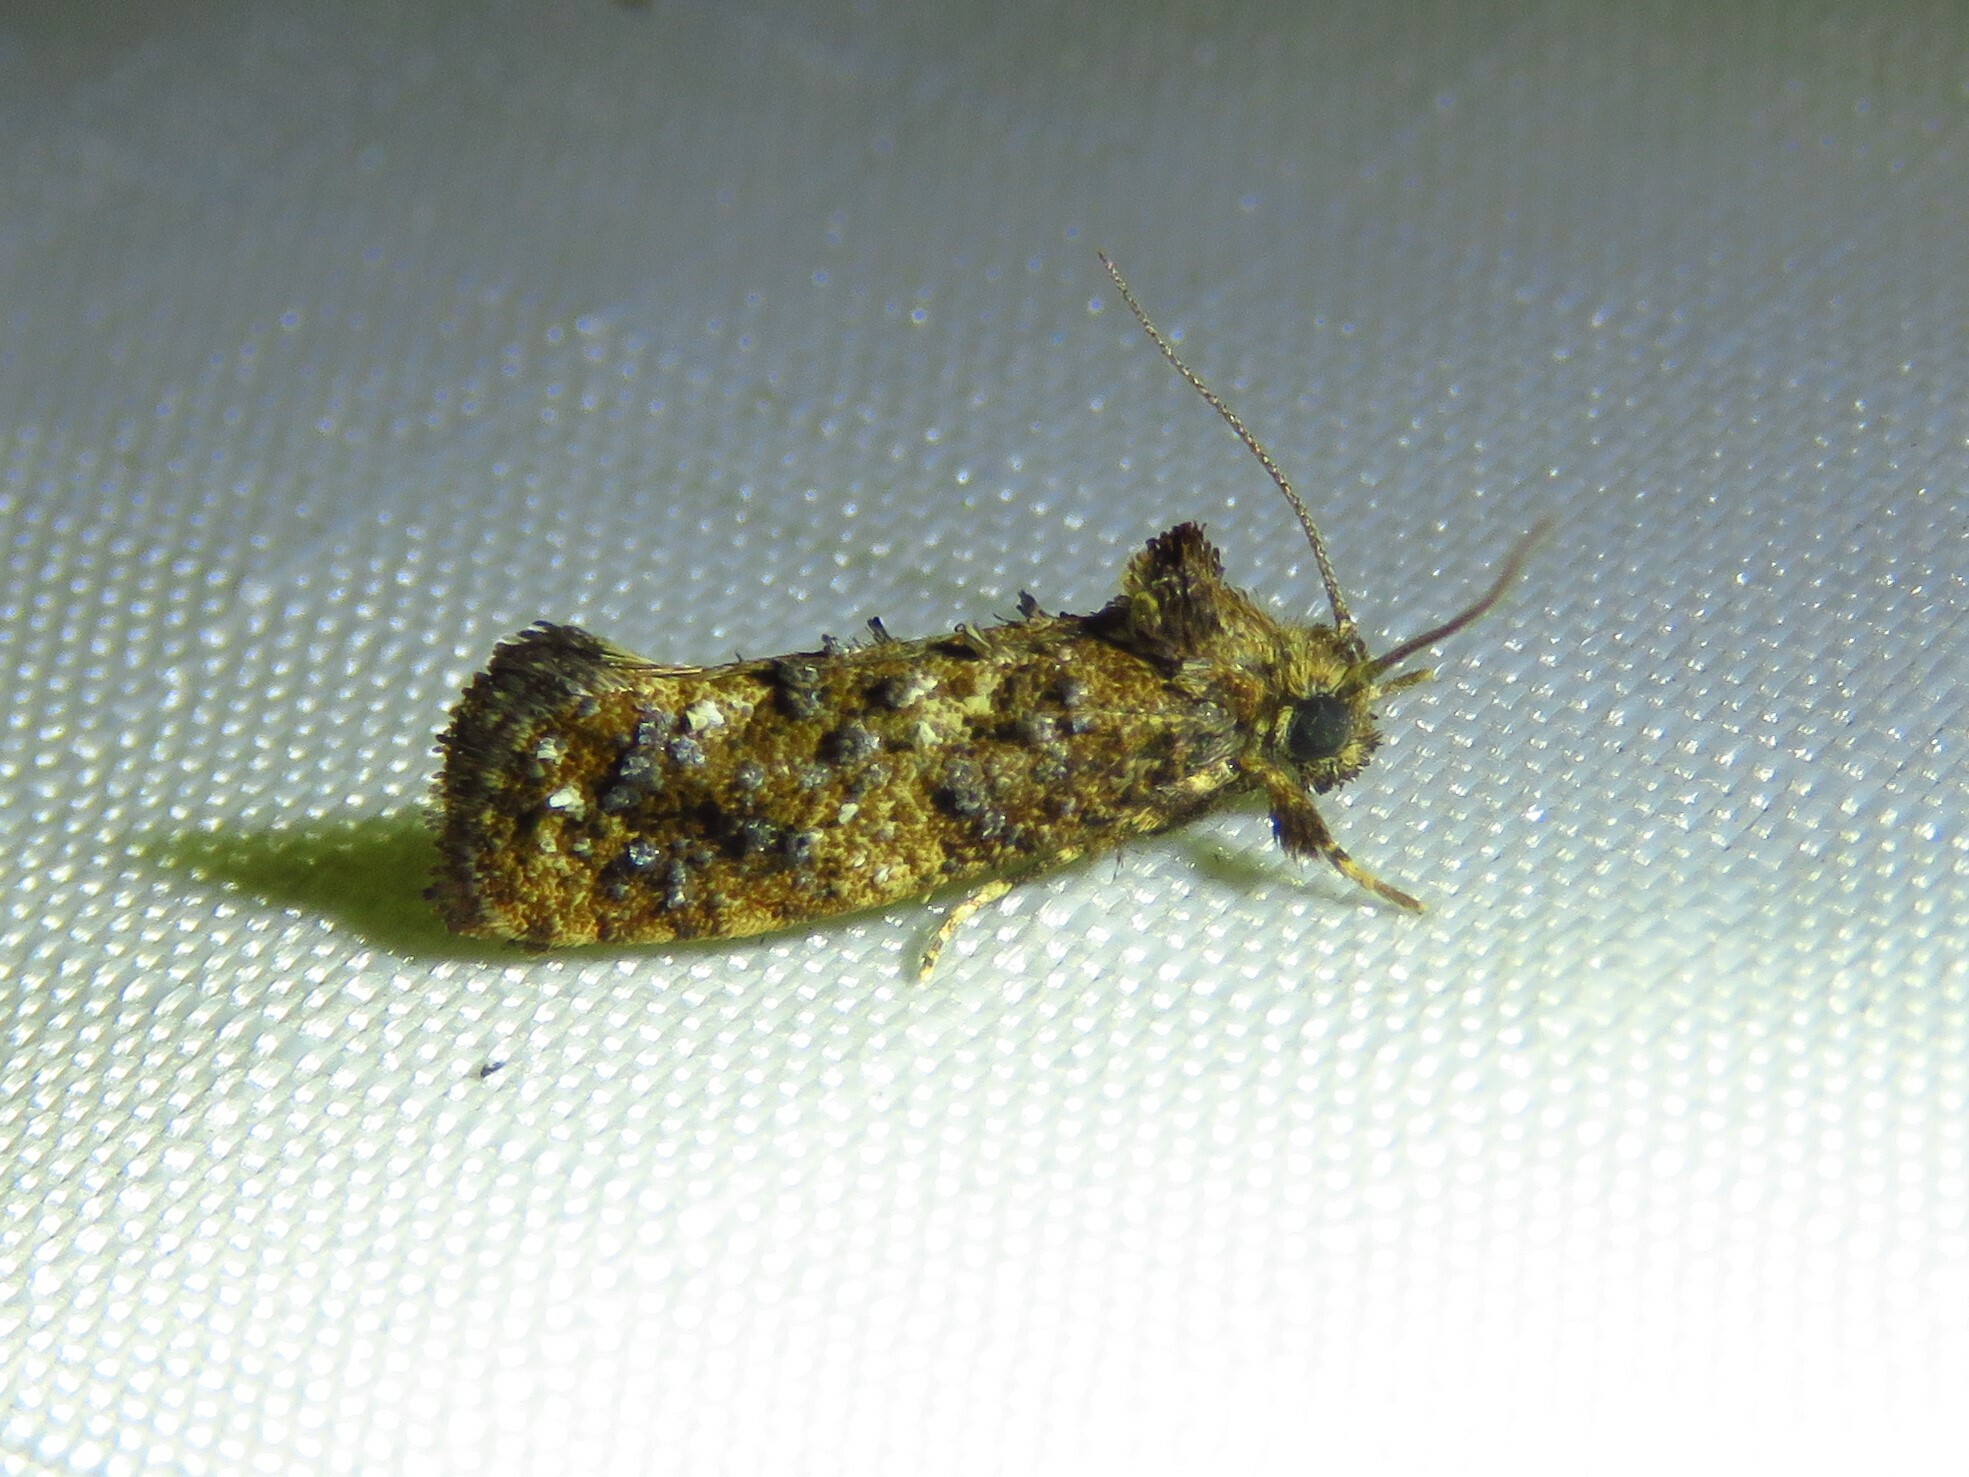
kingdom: Animalia
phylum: Arthropoda
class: Insecta
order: Lepidoptera
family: Tineidae
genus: Acrolophus
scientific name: Acrolophus cressoni
